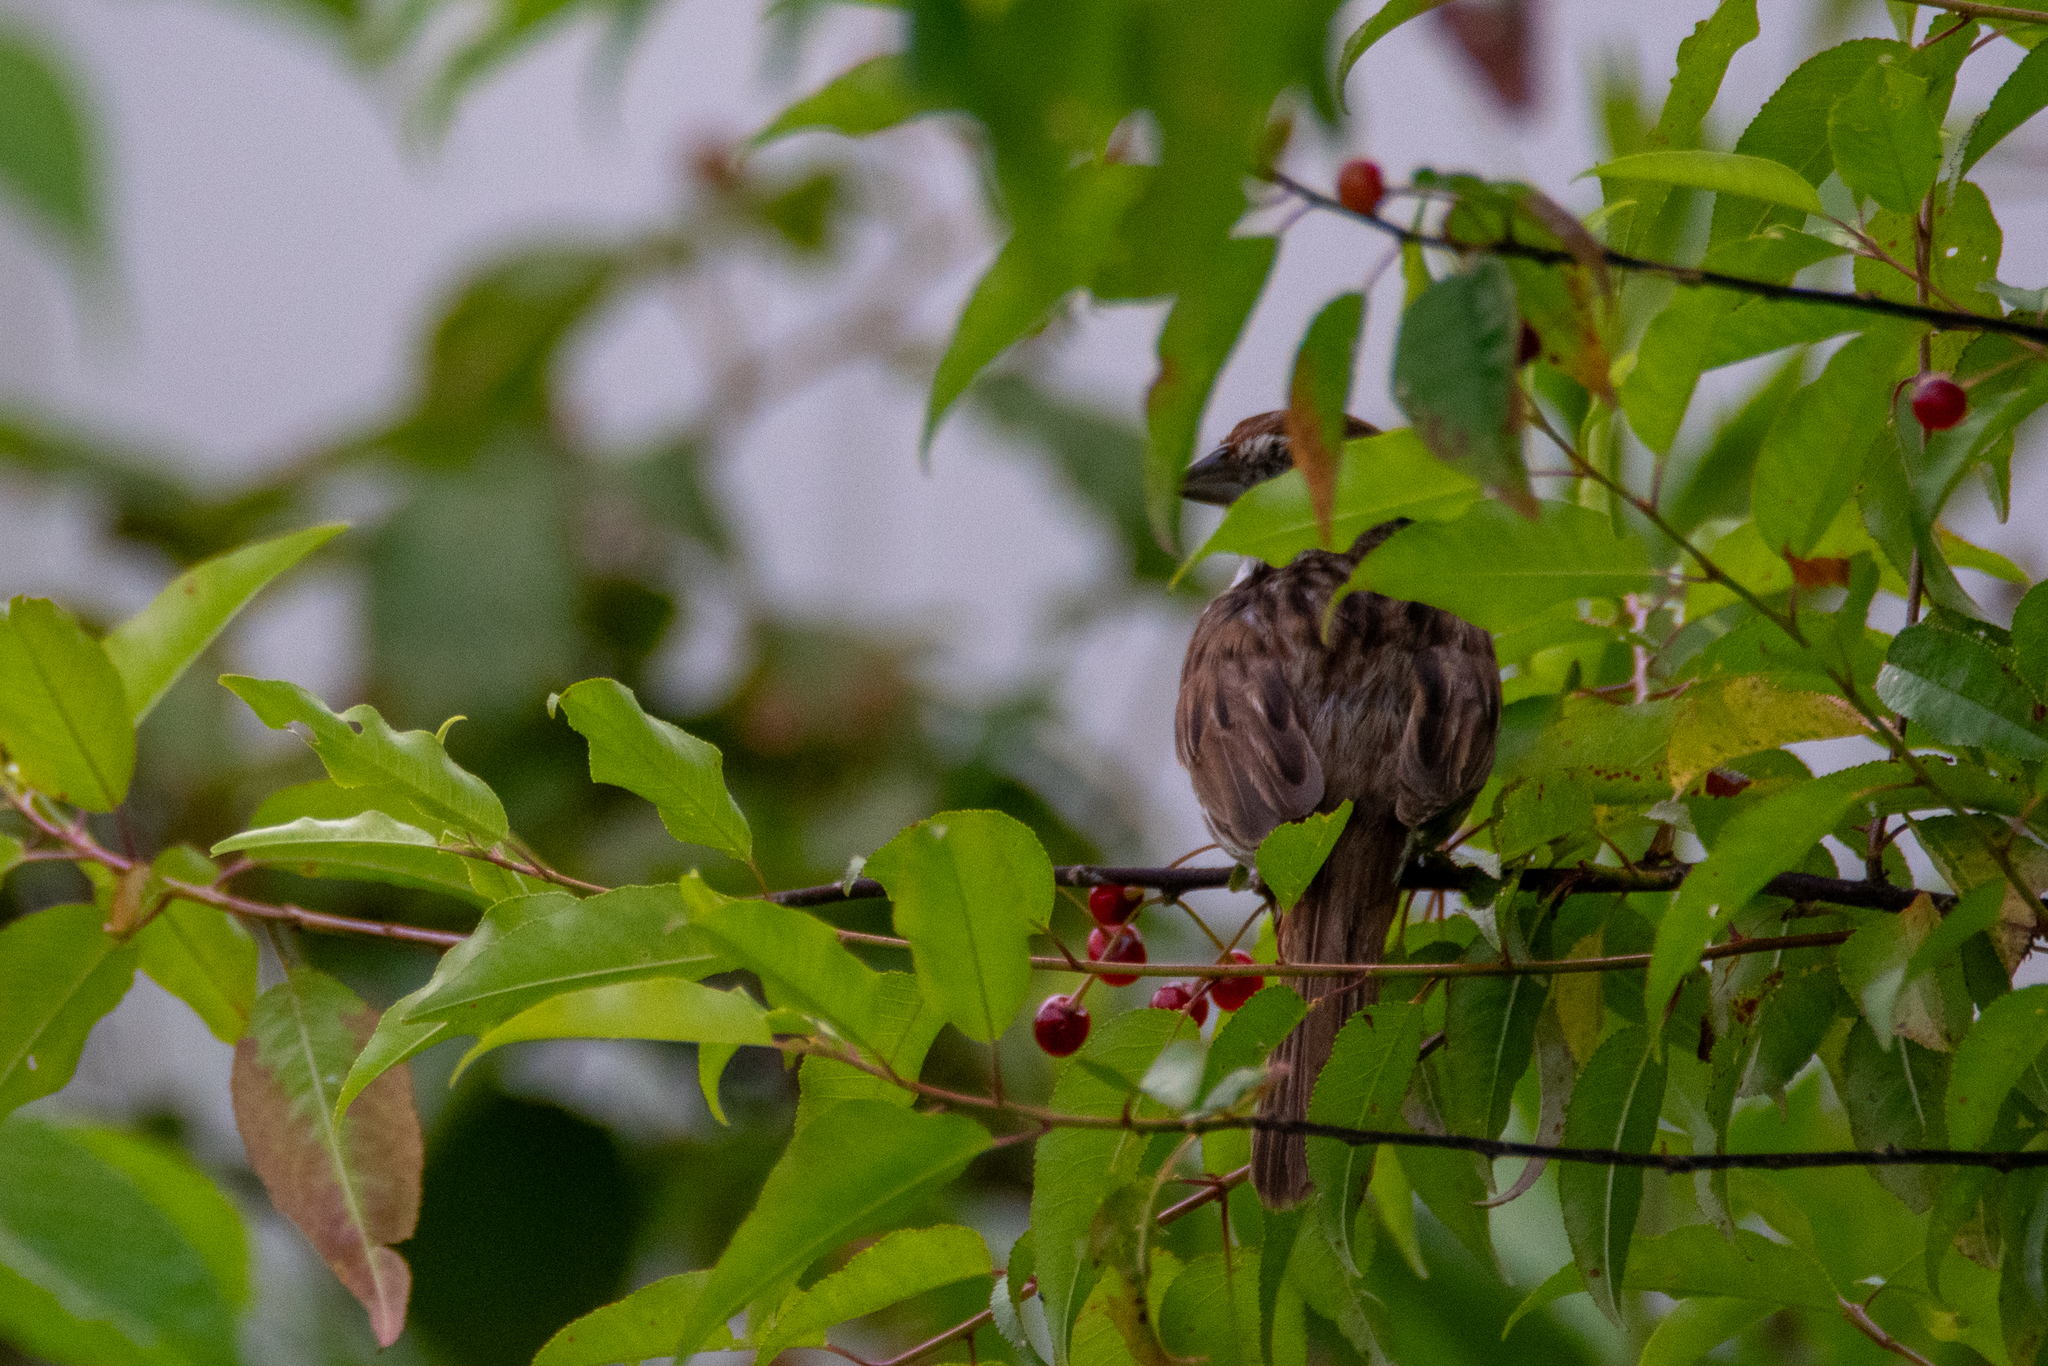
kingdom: Animalia
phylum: Chordata
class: Aves
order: Passeriformes
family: Passerellidae
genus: Melospiza
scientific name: Melospiza melodia
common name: Song sparrow
